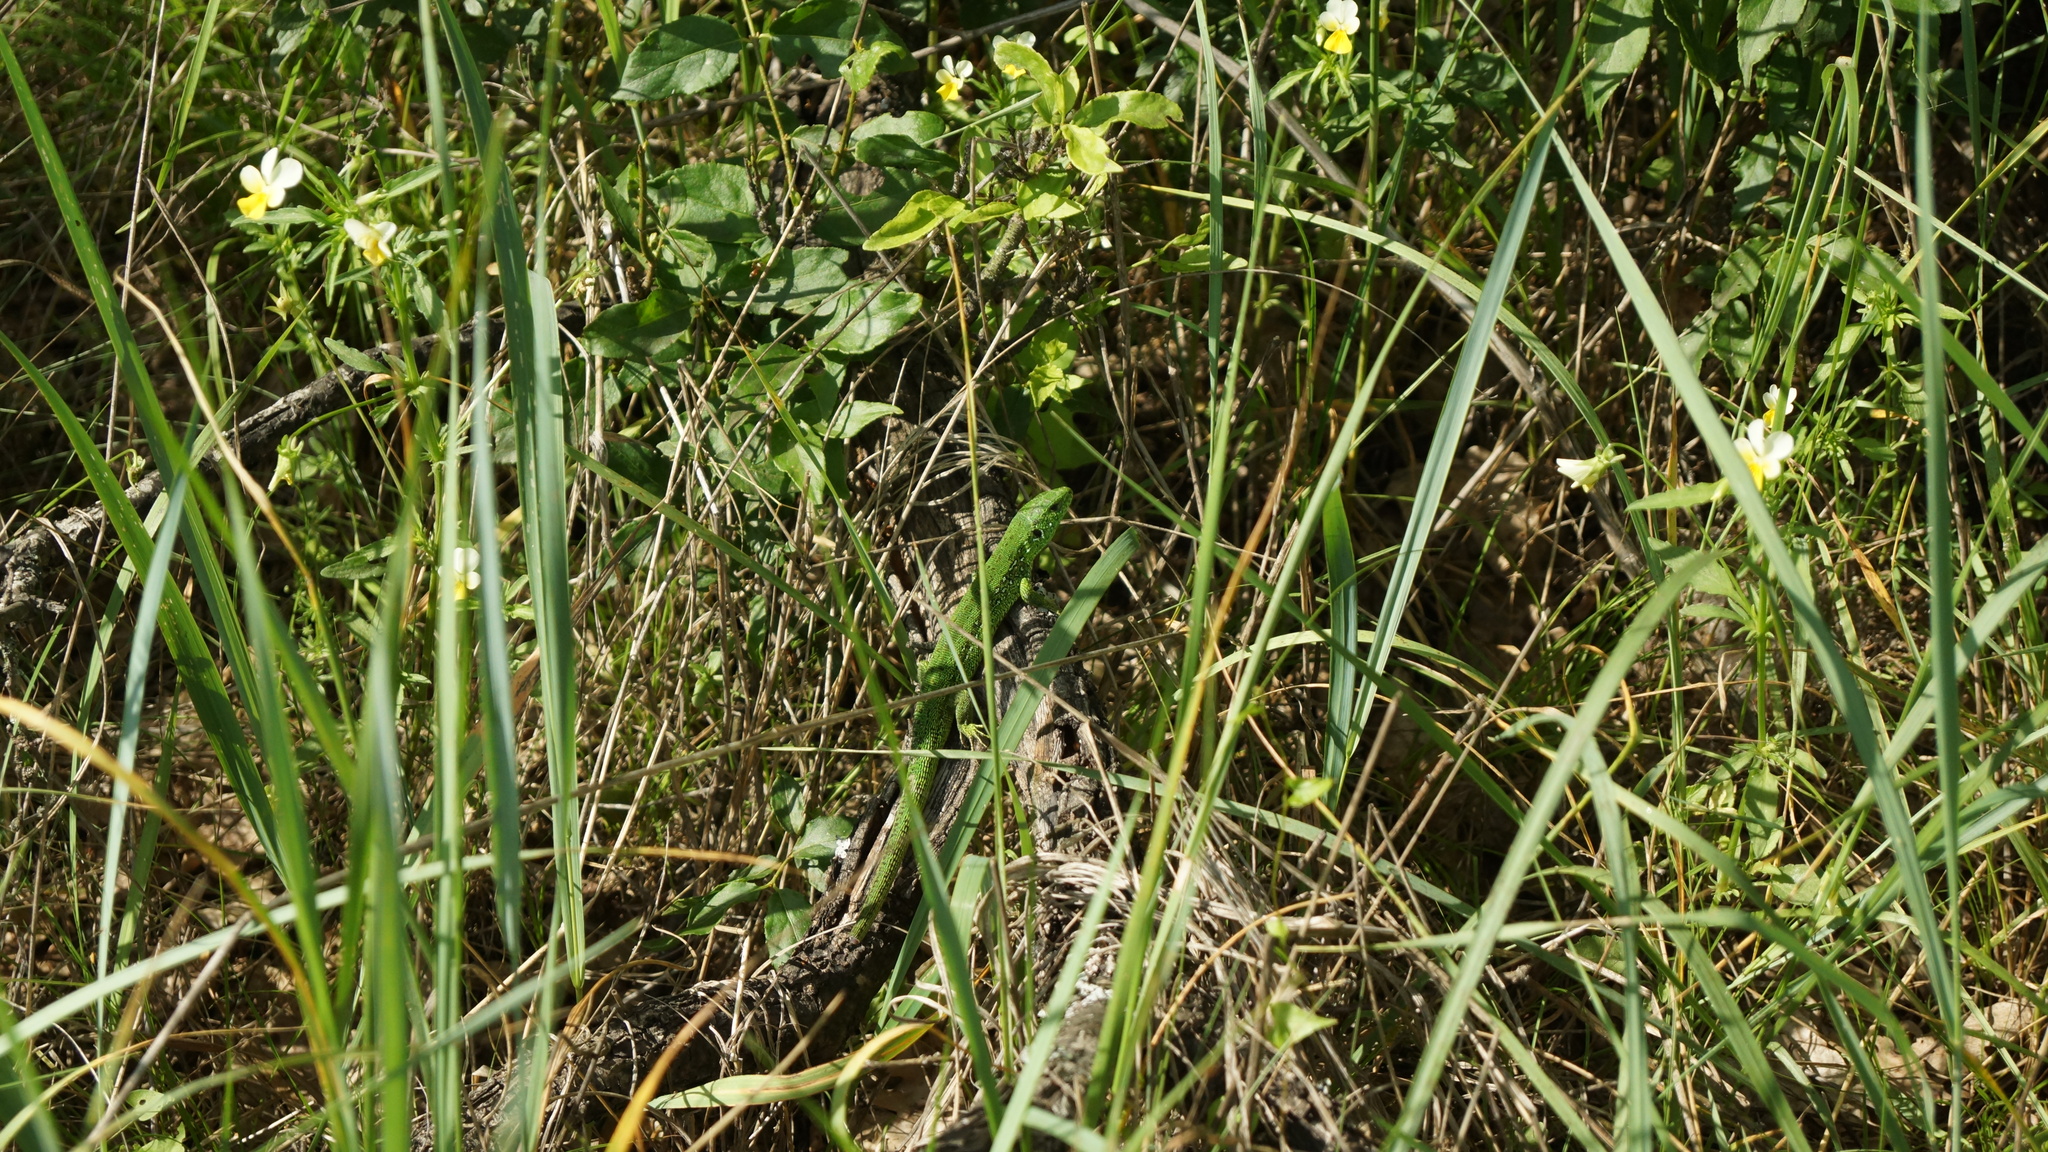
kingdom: Animalia
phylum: Chordata
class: Squamata
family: Lacertidae
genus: Lacerta
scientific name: Lacerta agilis
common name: Sand lizard
